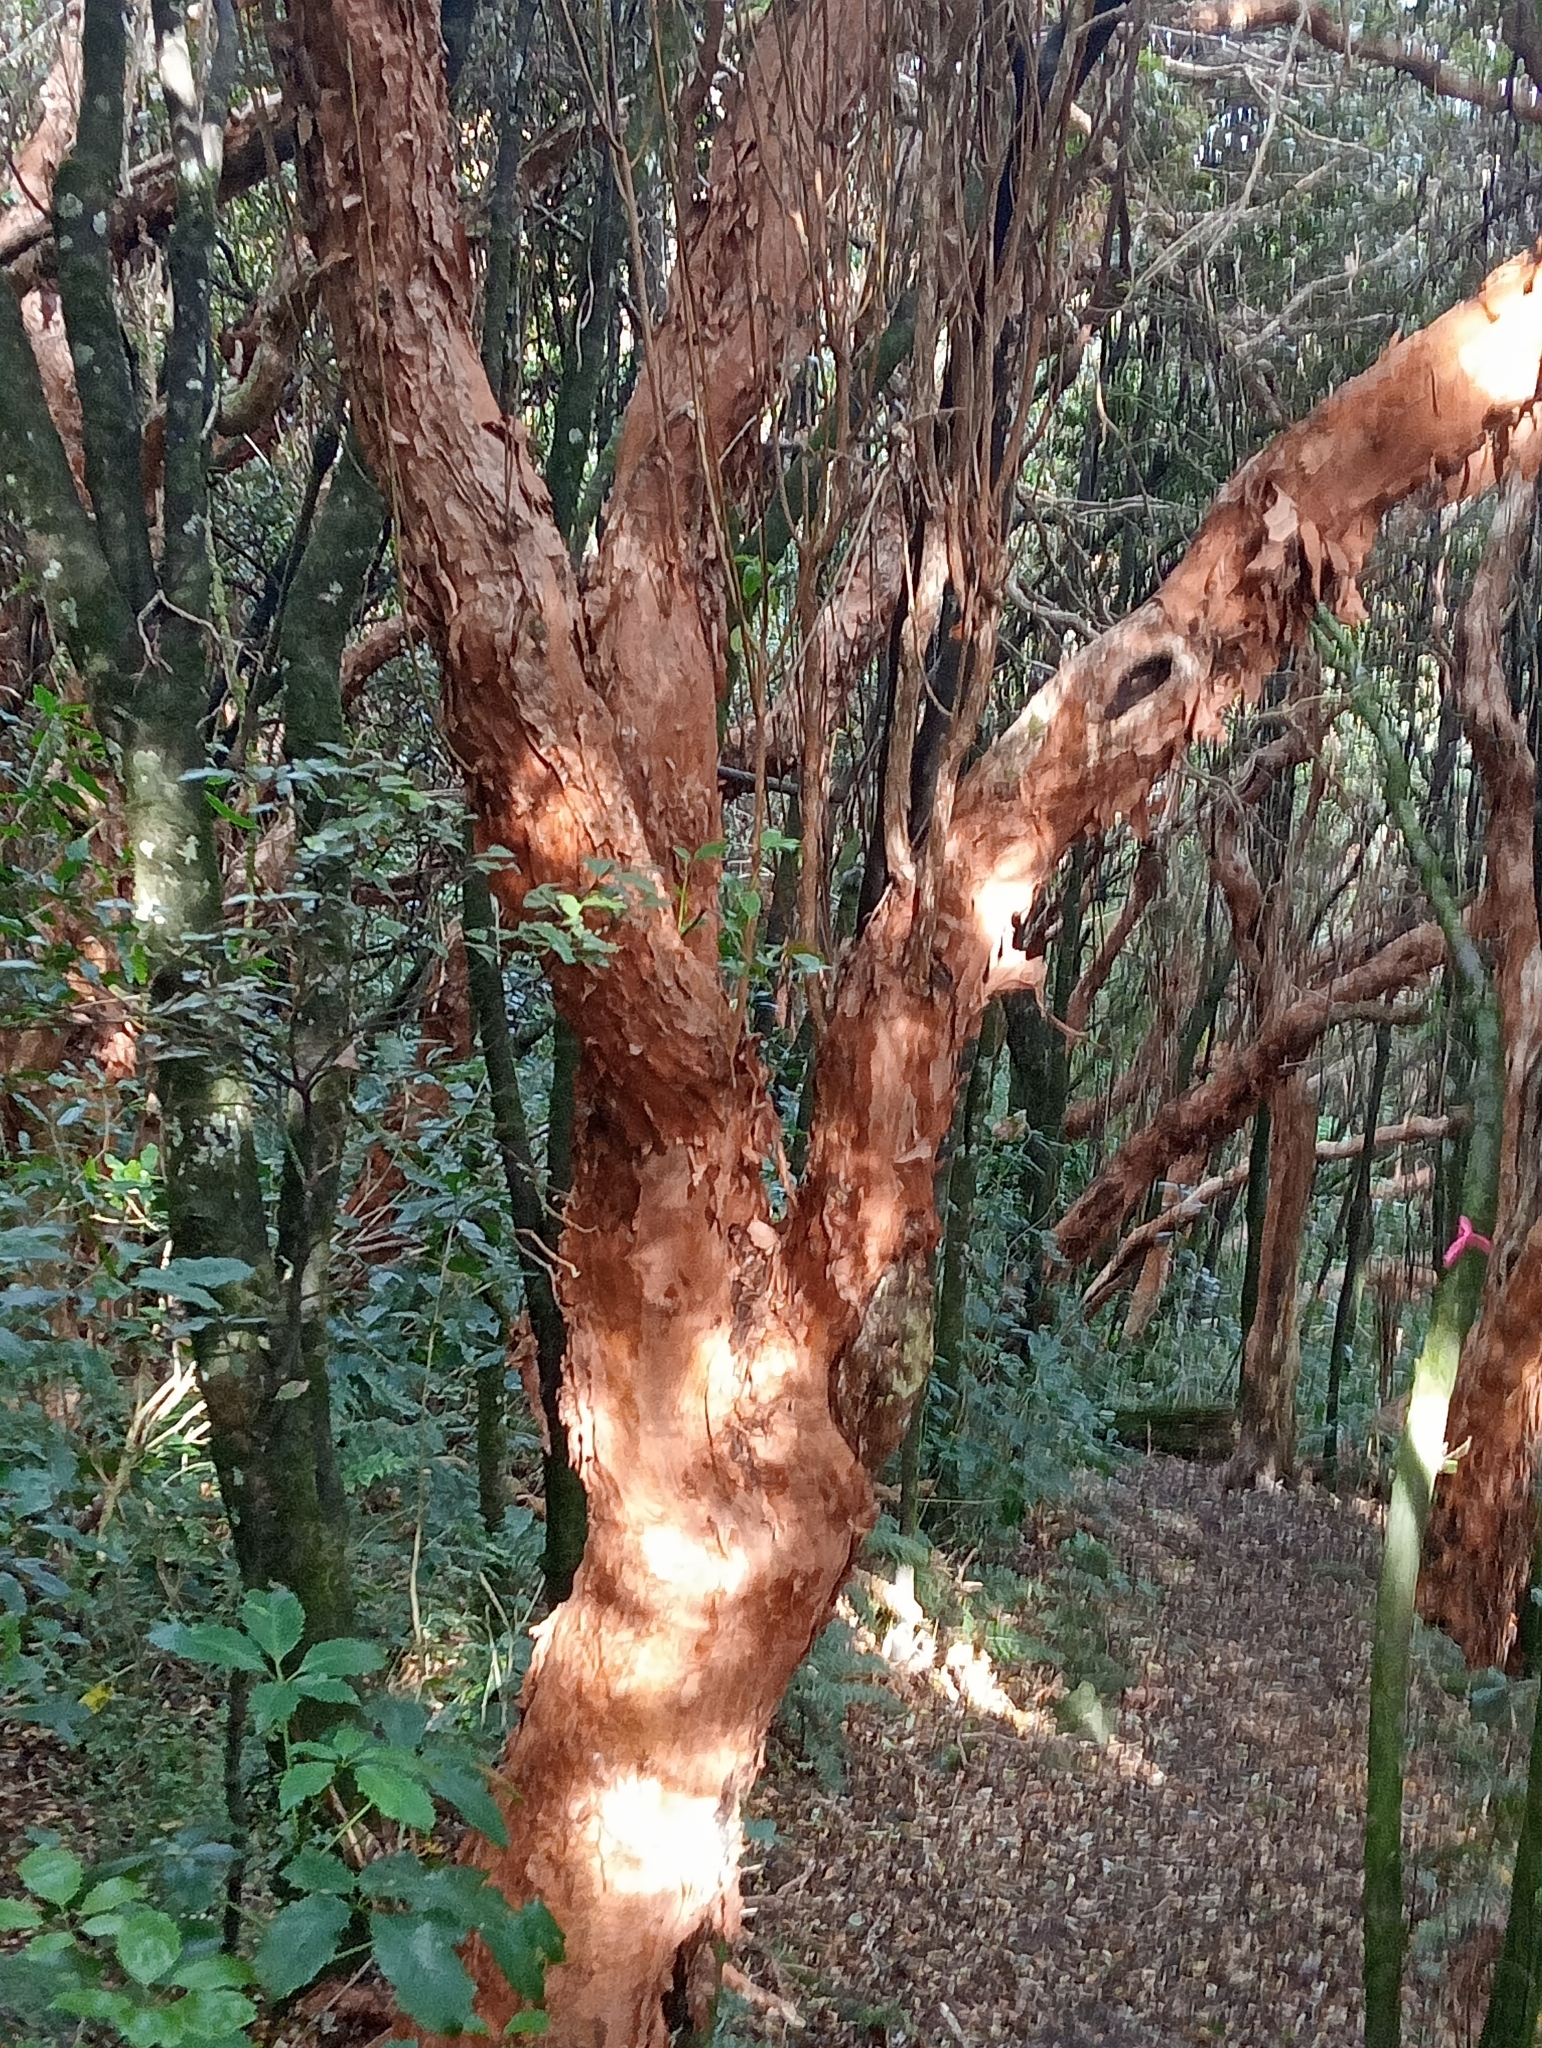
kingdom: Plantae
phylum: Tracheophyta
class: Magnoliopsida
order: Myrtales
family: Onagraceae
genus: Fuchsia
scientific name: Fuchsia excorticata
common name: Tree fuchsia
